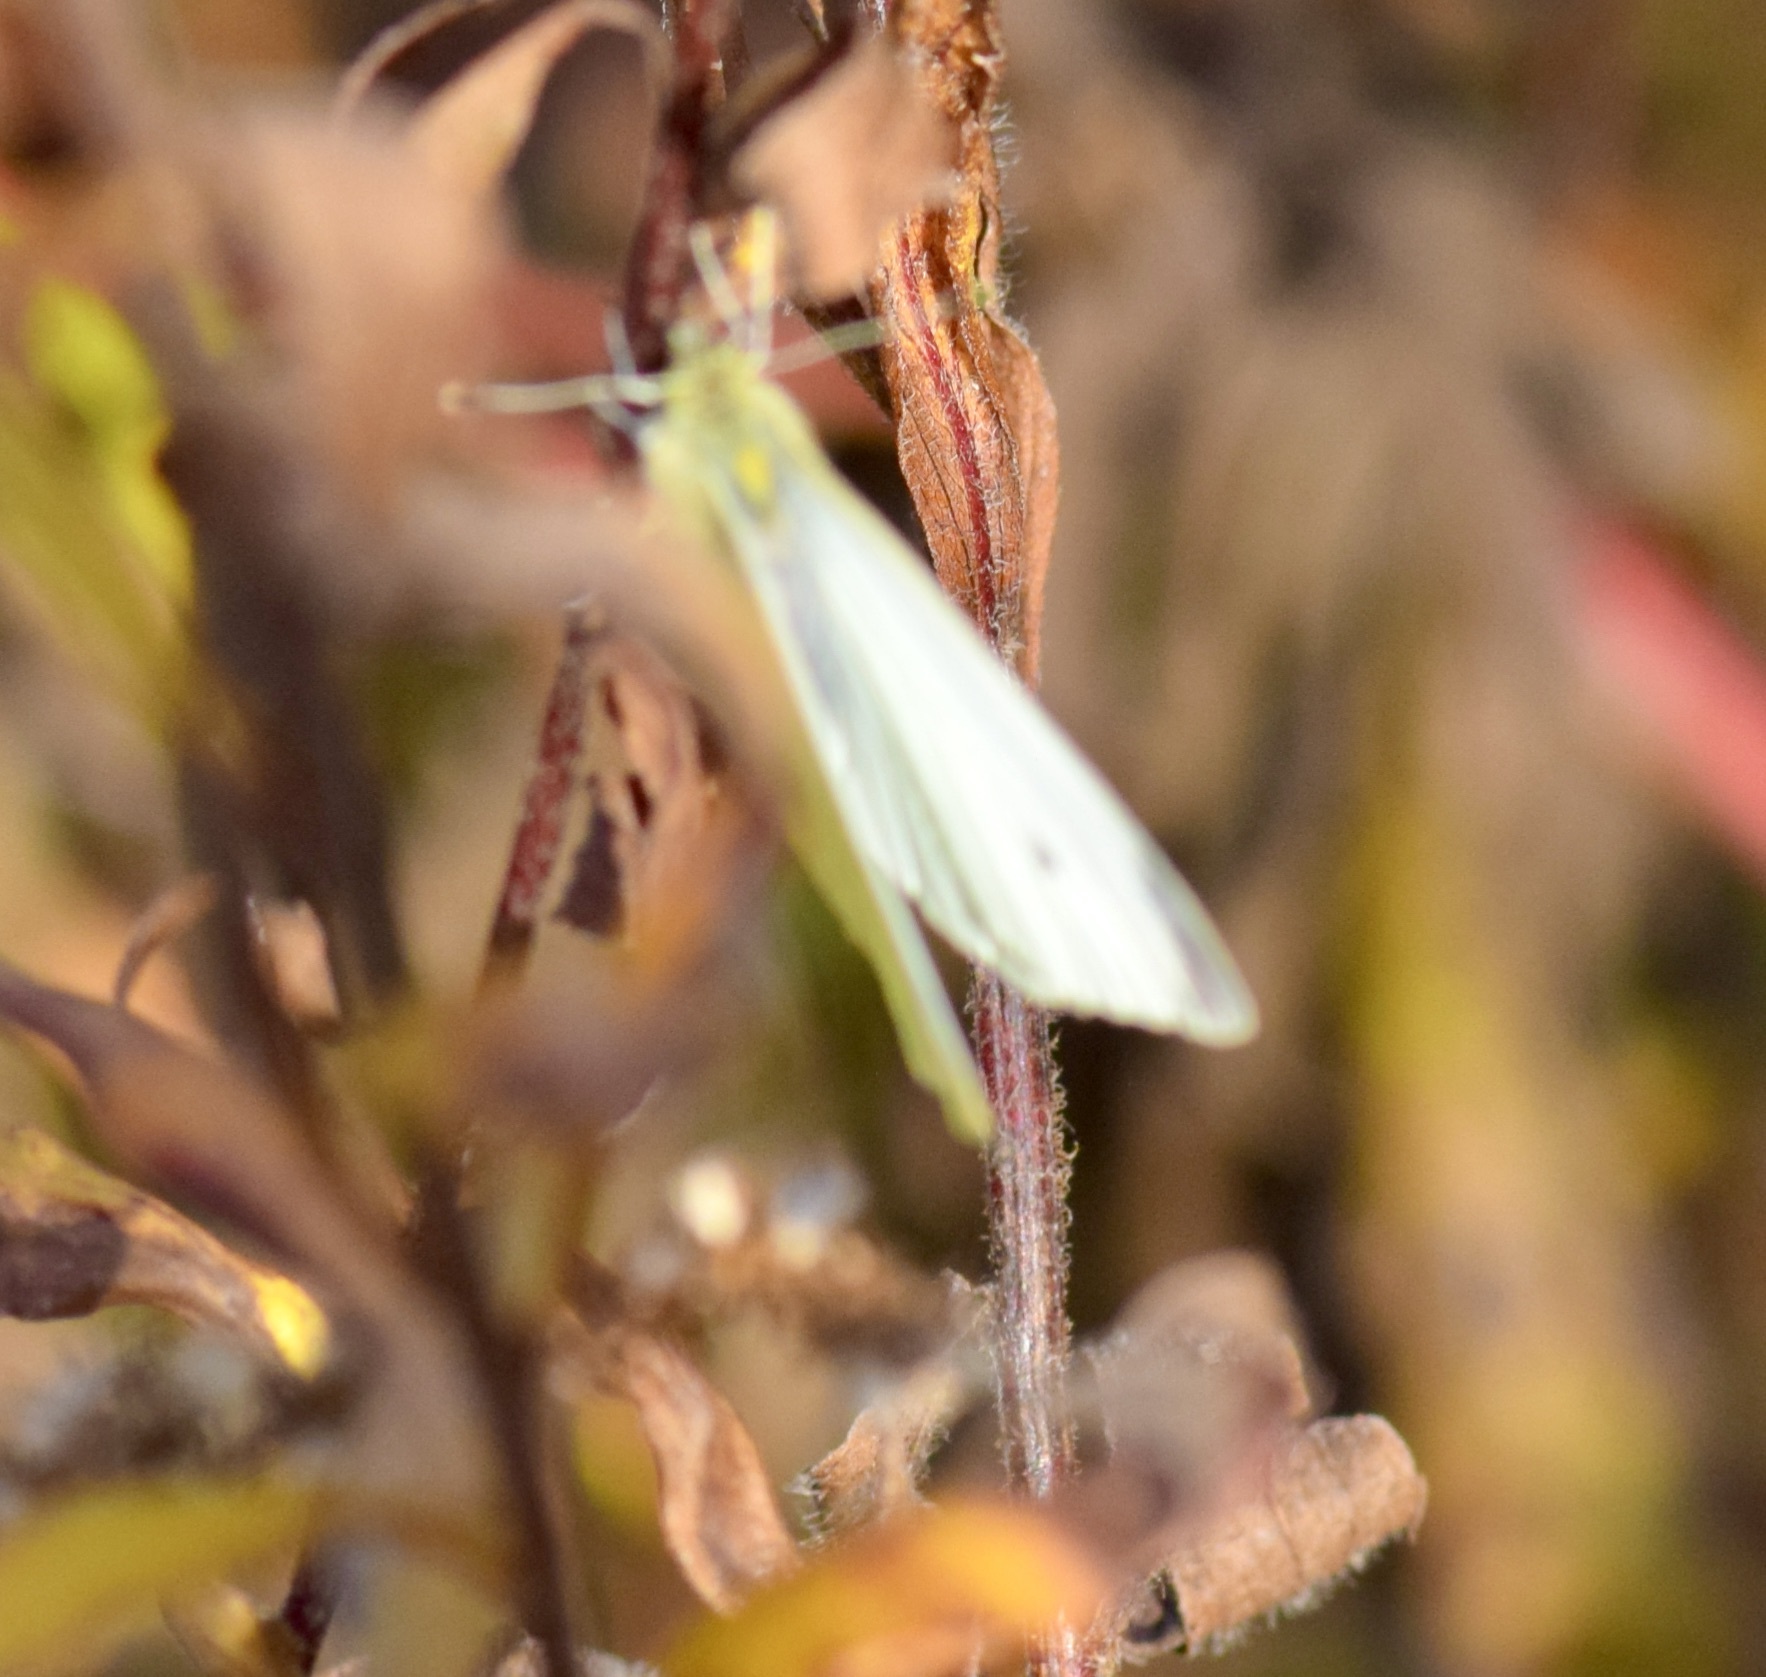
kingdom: Animalia
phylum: Arthropoda
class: Insecta
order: Lepidoptera
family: Pieridae
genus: Pieris
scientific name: Pieris rapae
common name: Small white
